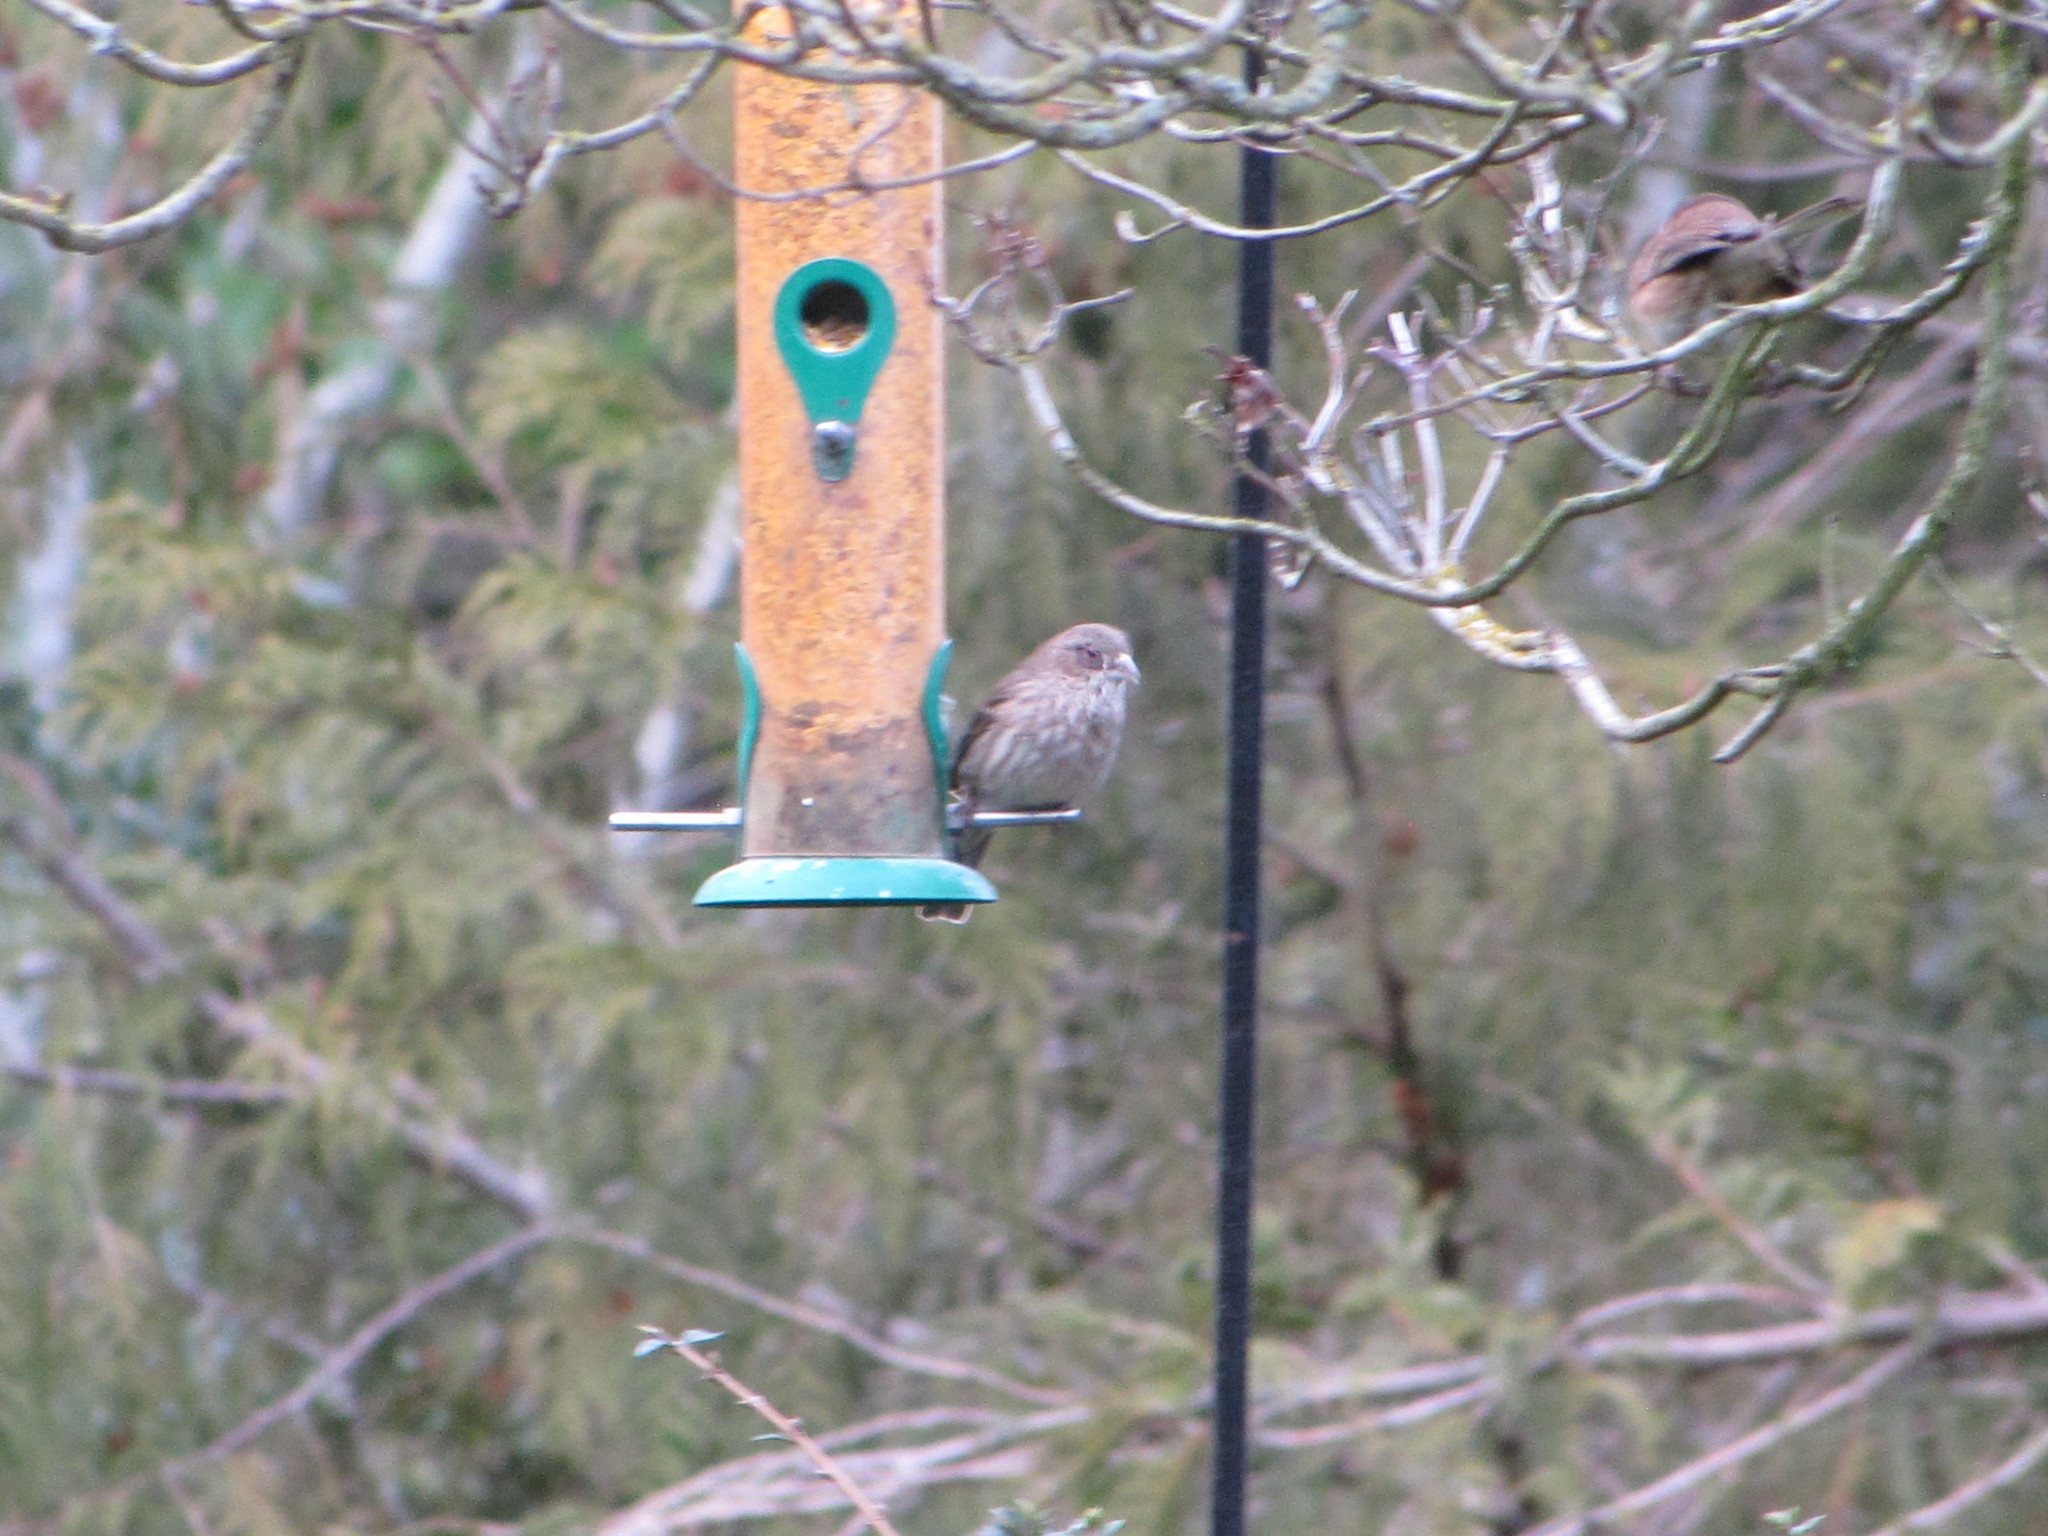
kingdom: Animalia
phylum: Chordata
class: Aves
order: Passeriformes
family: Fringillidae
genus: Haemorhous
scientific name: Haemorhous mexicanus
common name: House finch
